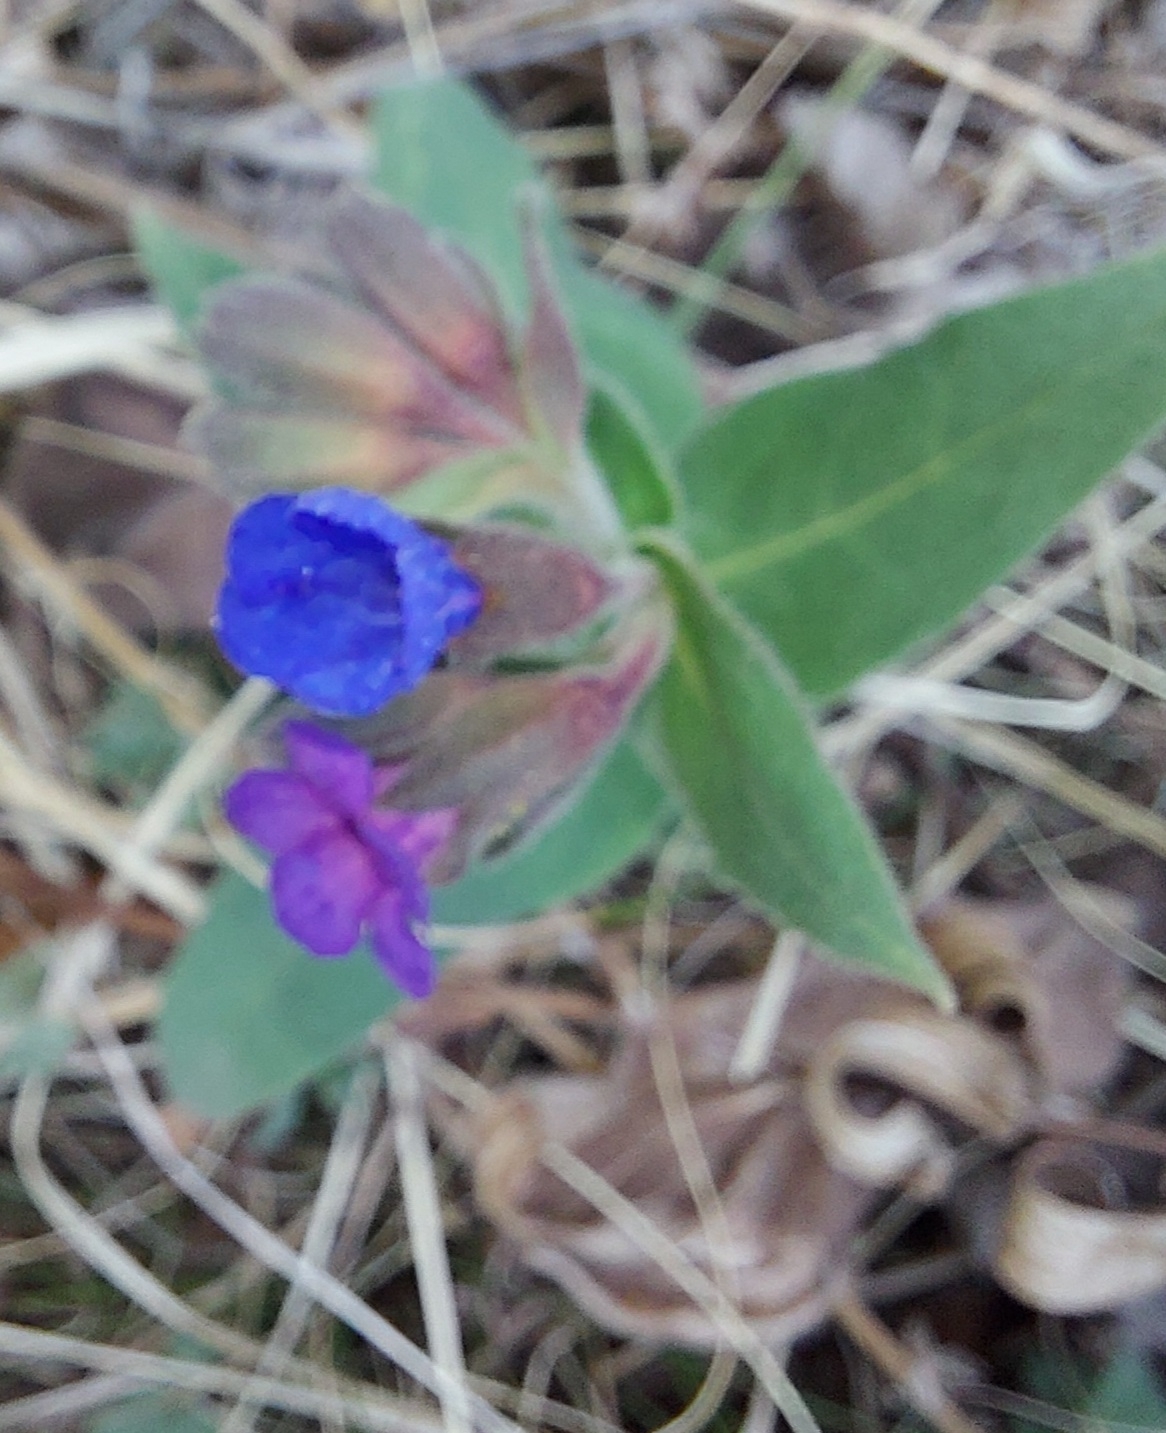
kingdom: Plantae
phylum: Tracheophyta
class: Magnoliopsida
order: Boraginales
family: Boraginaceae
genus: Pulmonaria
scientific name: Pulmonaria mollis
